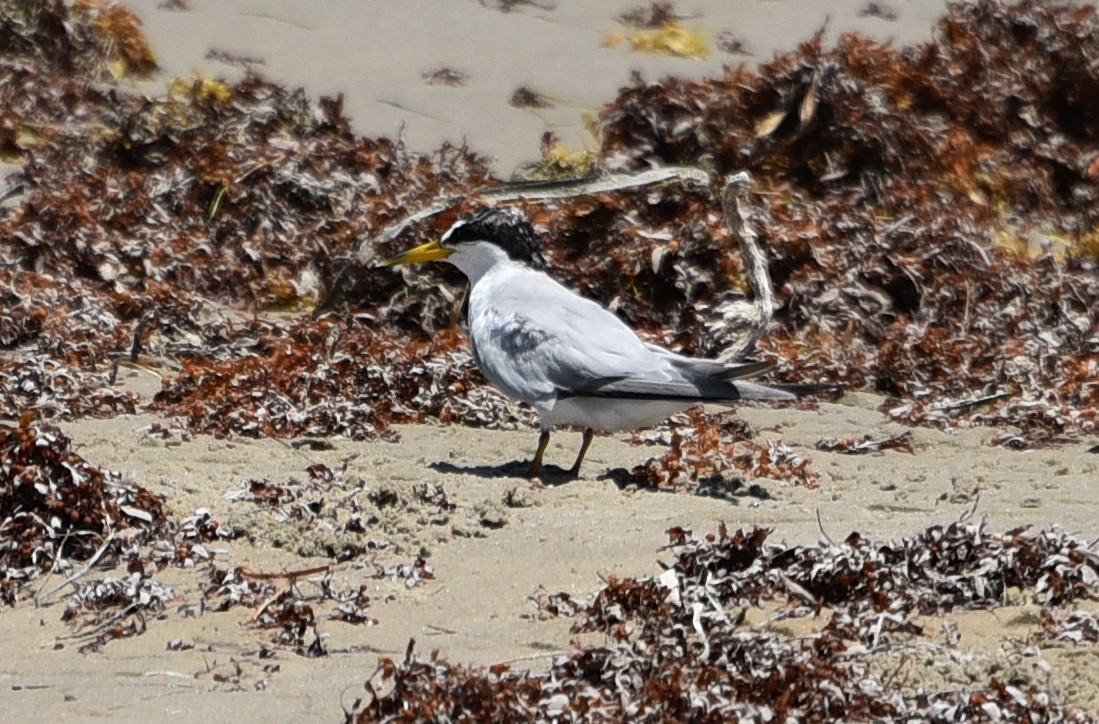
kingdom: Animalia
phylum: Chordata
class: Aves
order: Charadriiformes
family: Laridae
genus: Sternula
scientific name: Sternula antillarum
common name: Least tern
